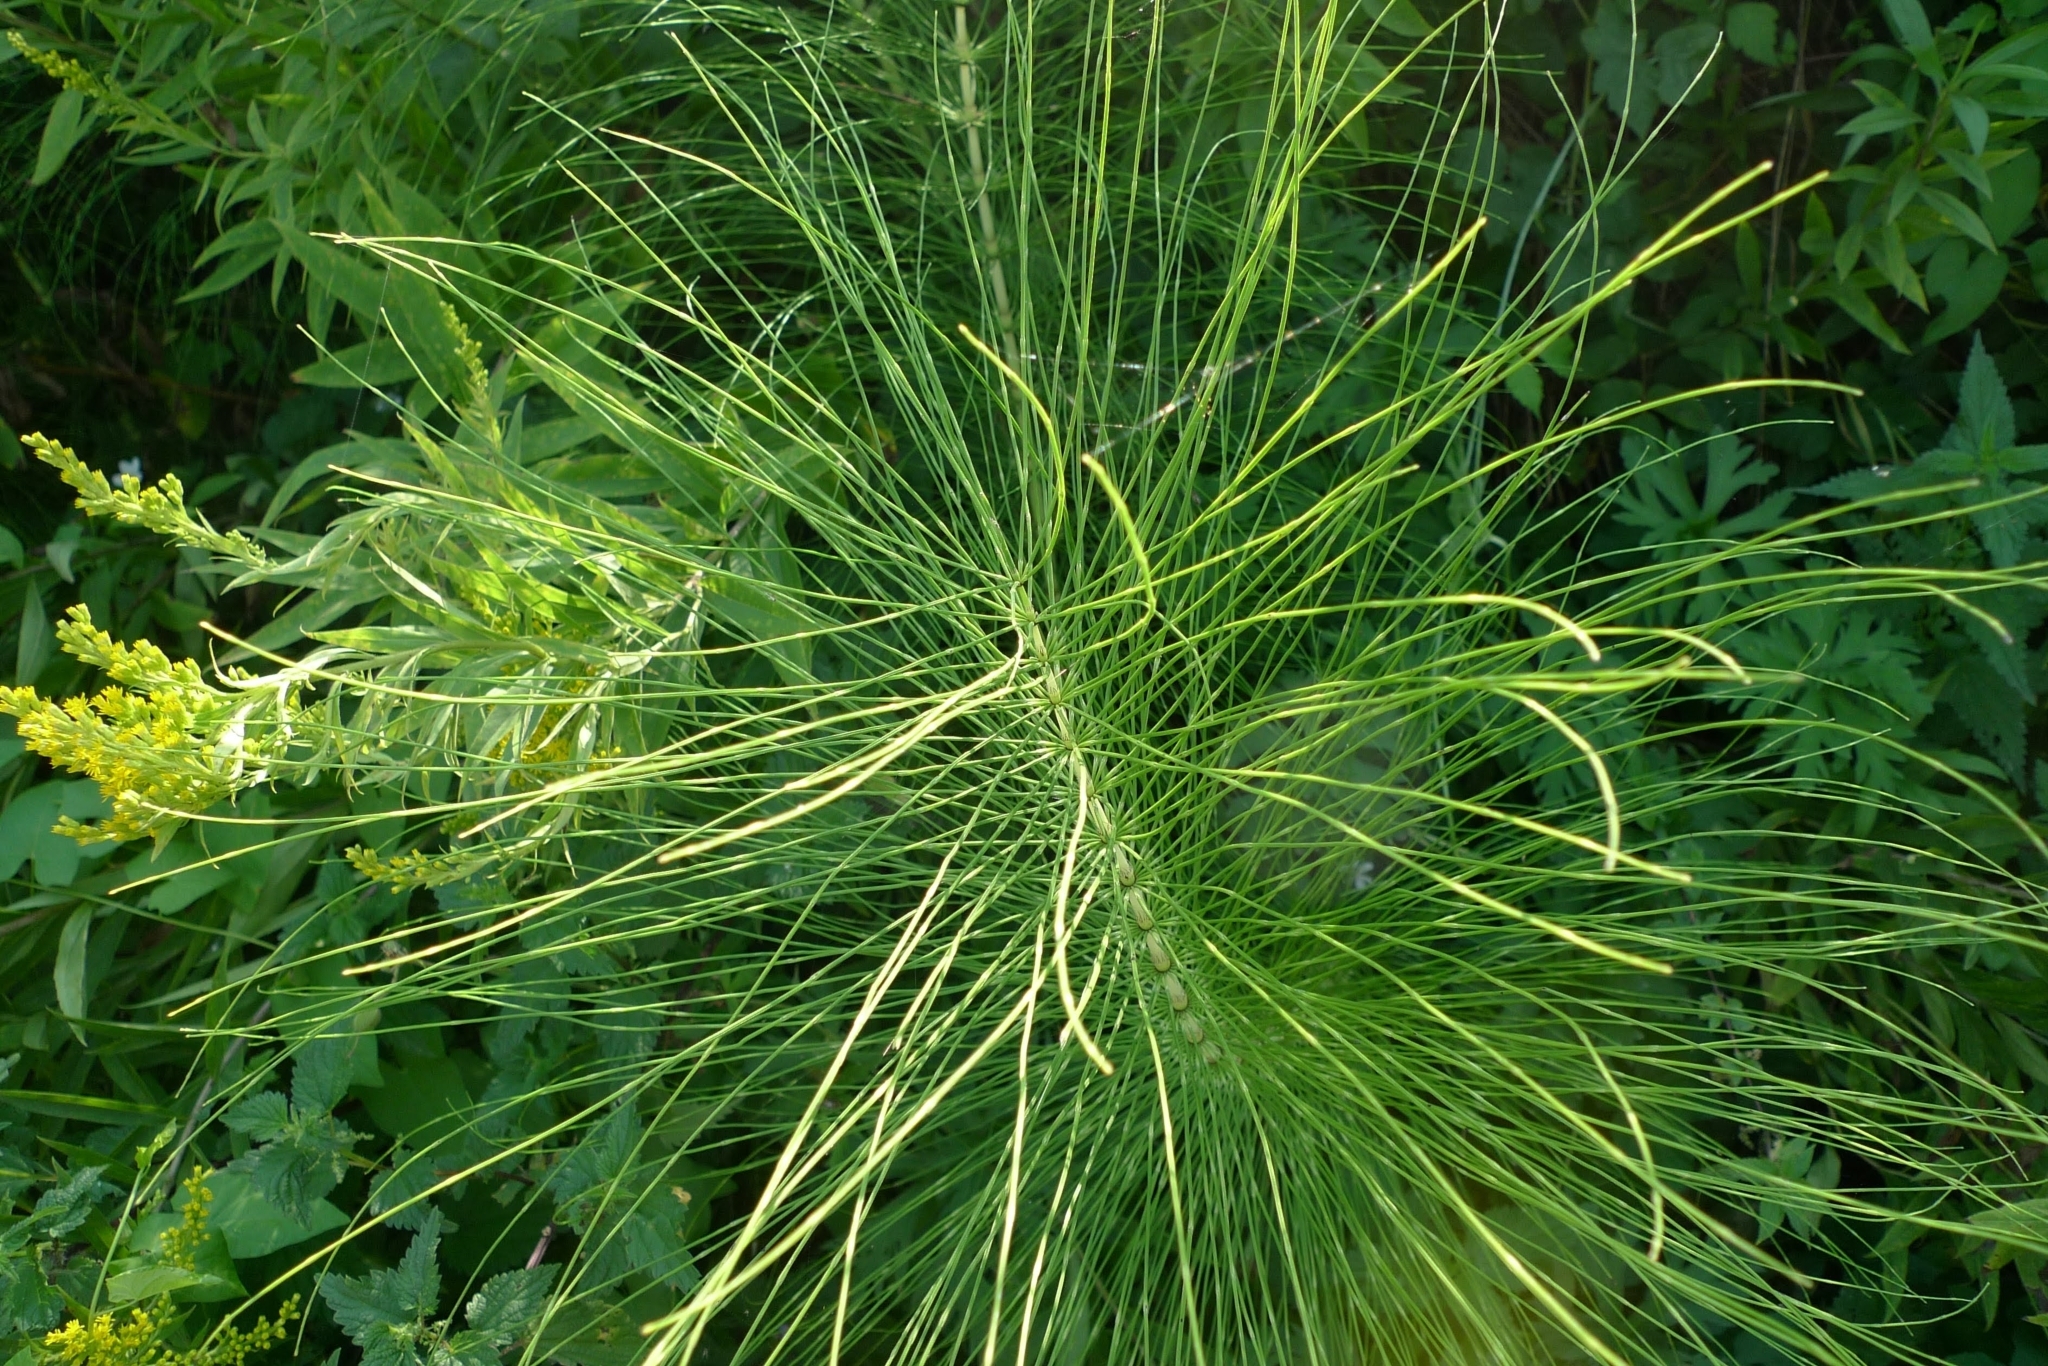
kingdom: Plantae
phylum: Tracheophyta
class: Polypodiopsida
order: Equisetales
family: Equisetaceae
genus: Equisetum
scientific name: Equisetum telmateia
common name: Great horsetail
